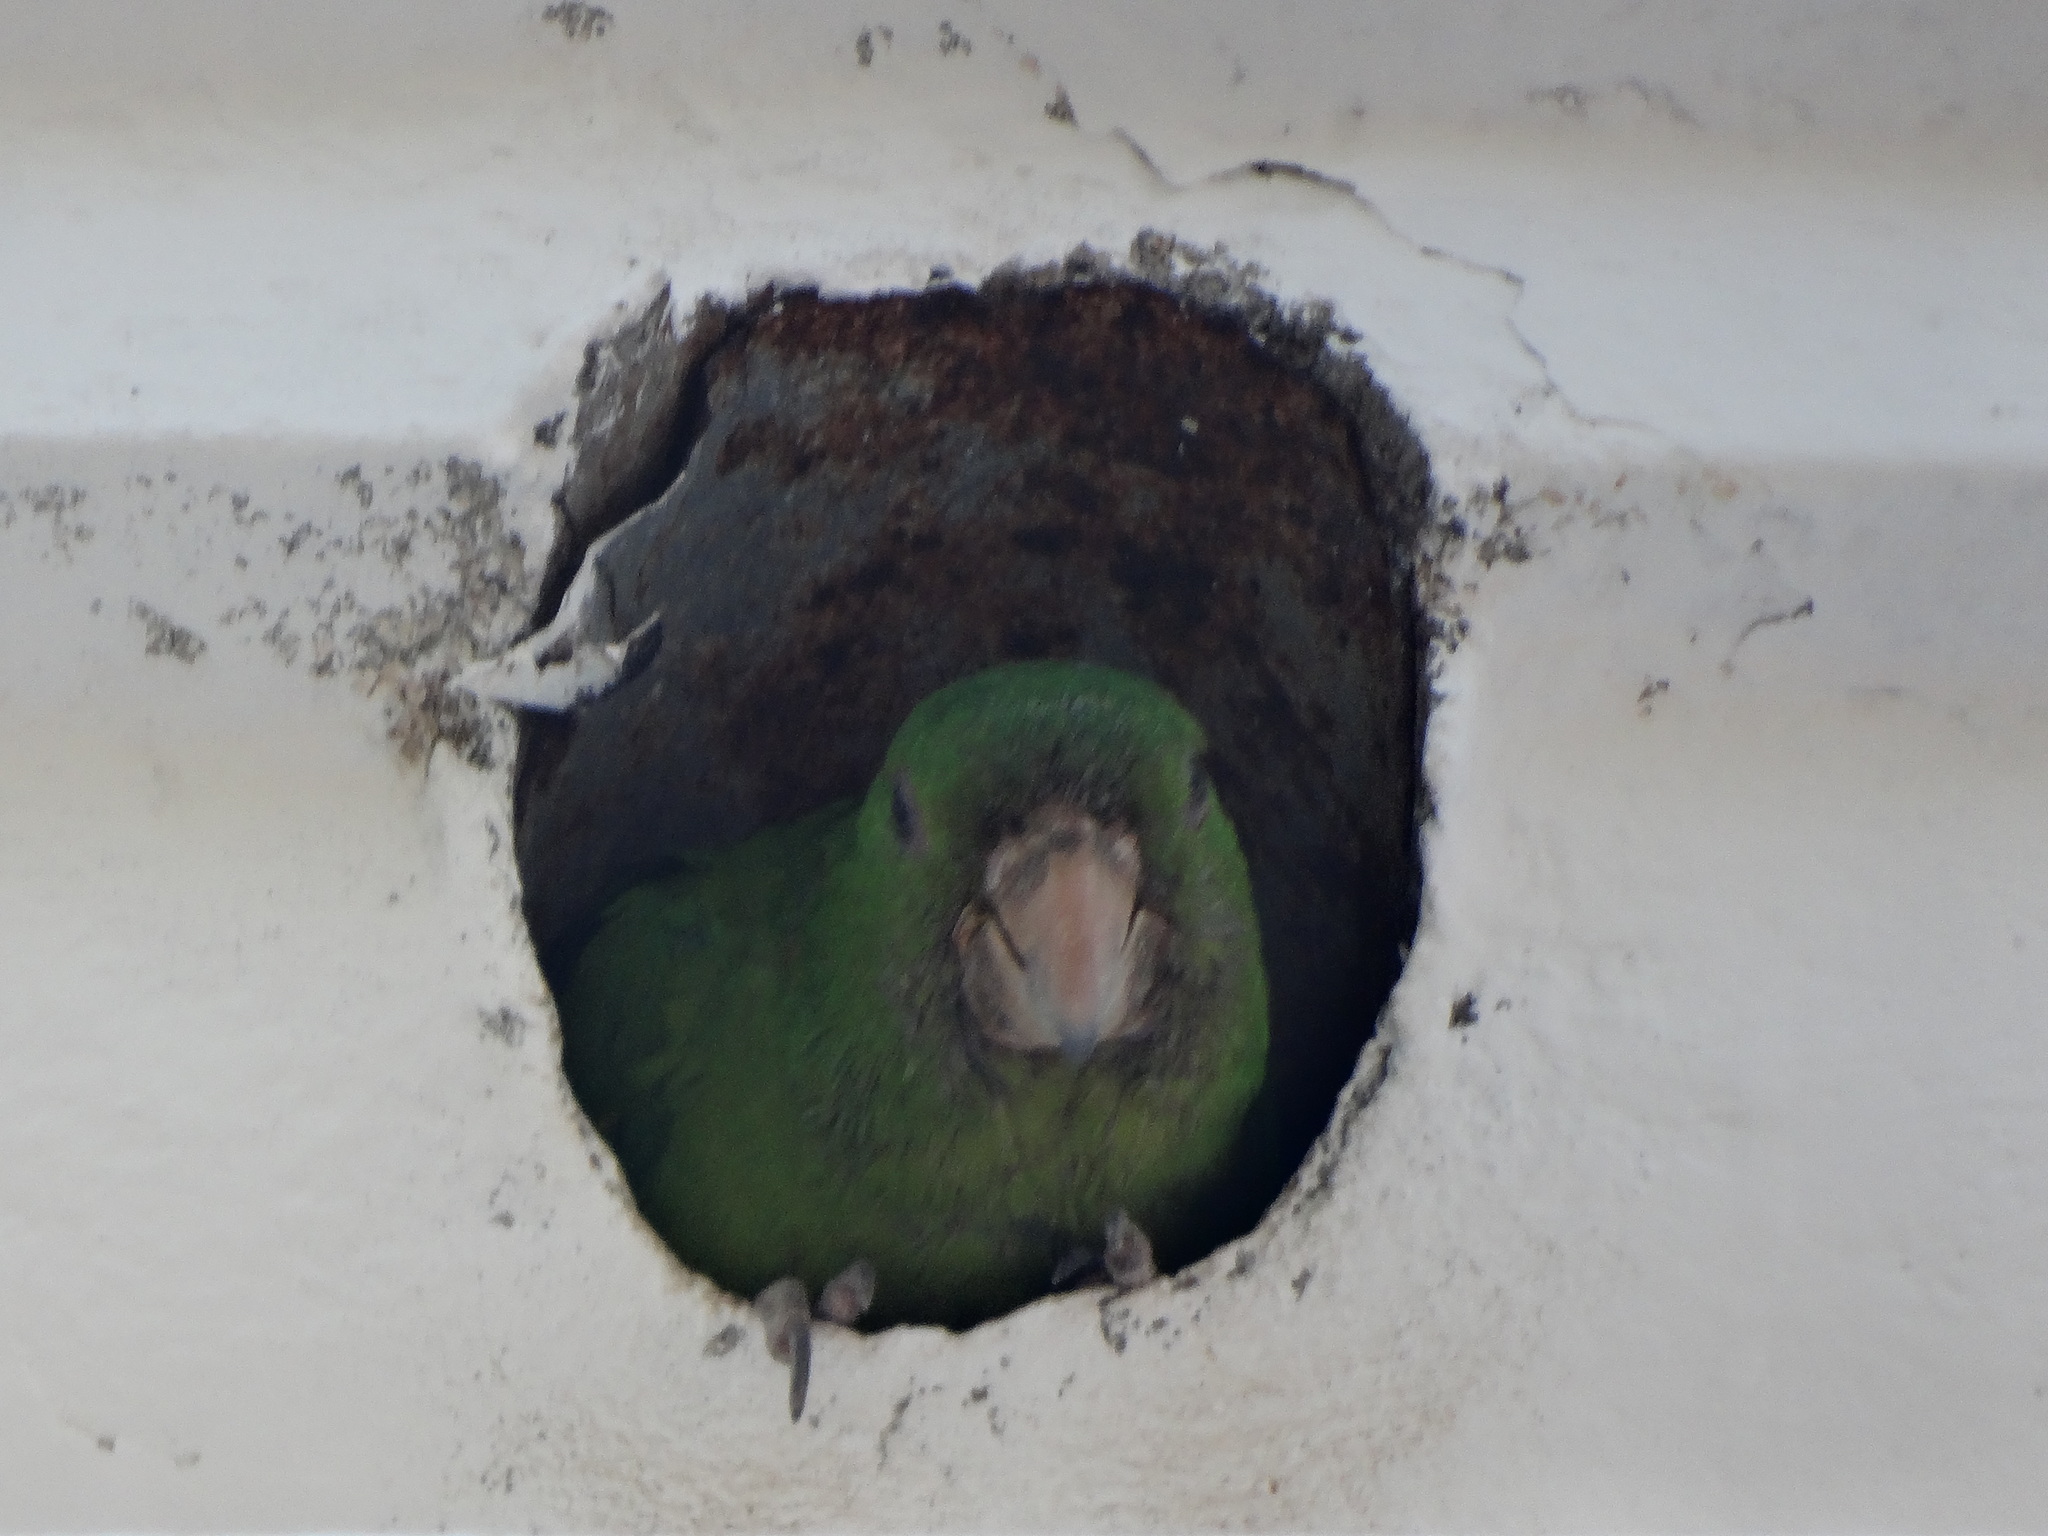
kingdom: Animalia
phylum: Chordata
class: Aves
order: Psittaciformes
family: Psittacidae
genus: Aratinga
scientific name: Aratinga holochlora
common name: Green parakeet
